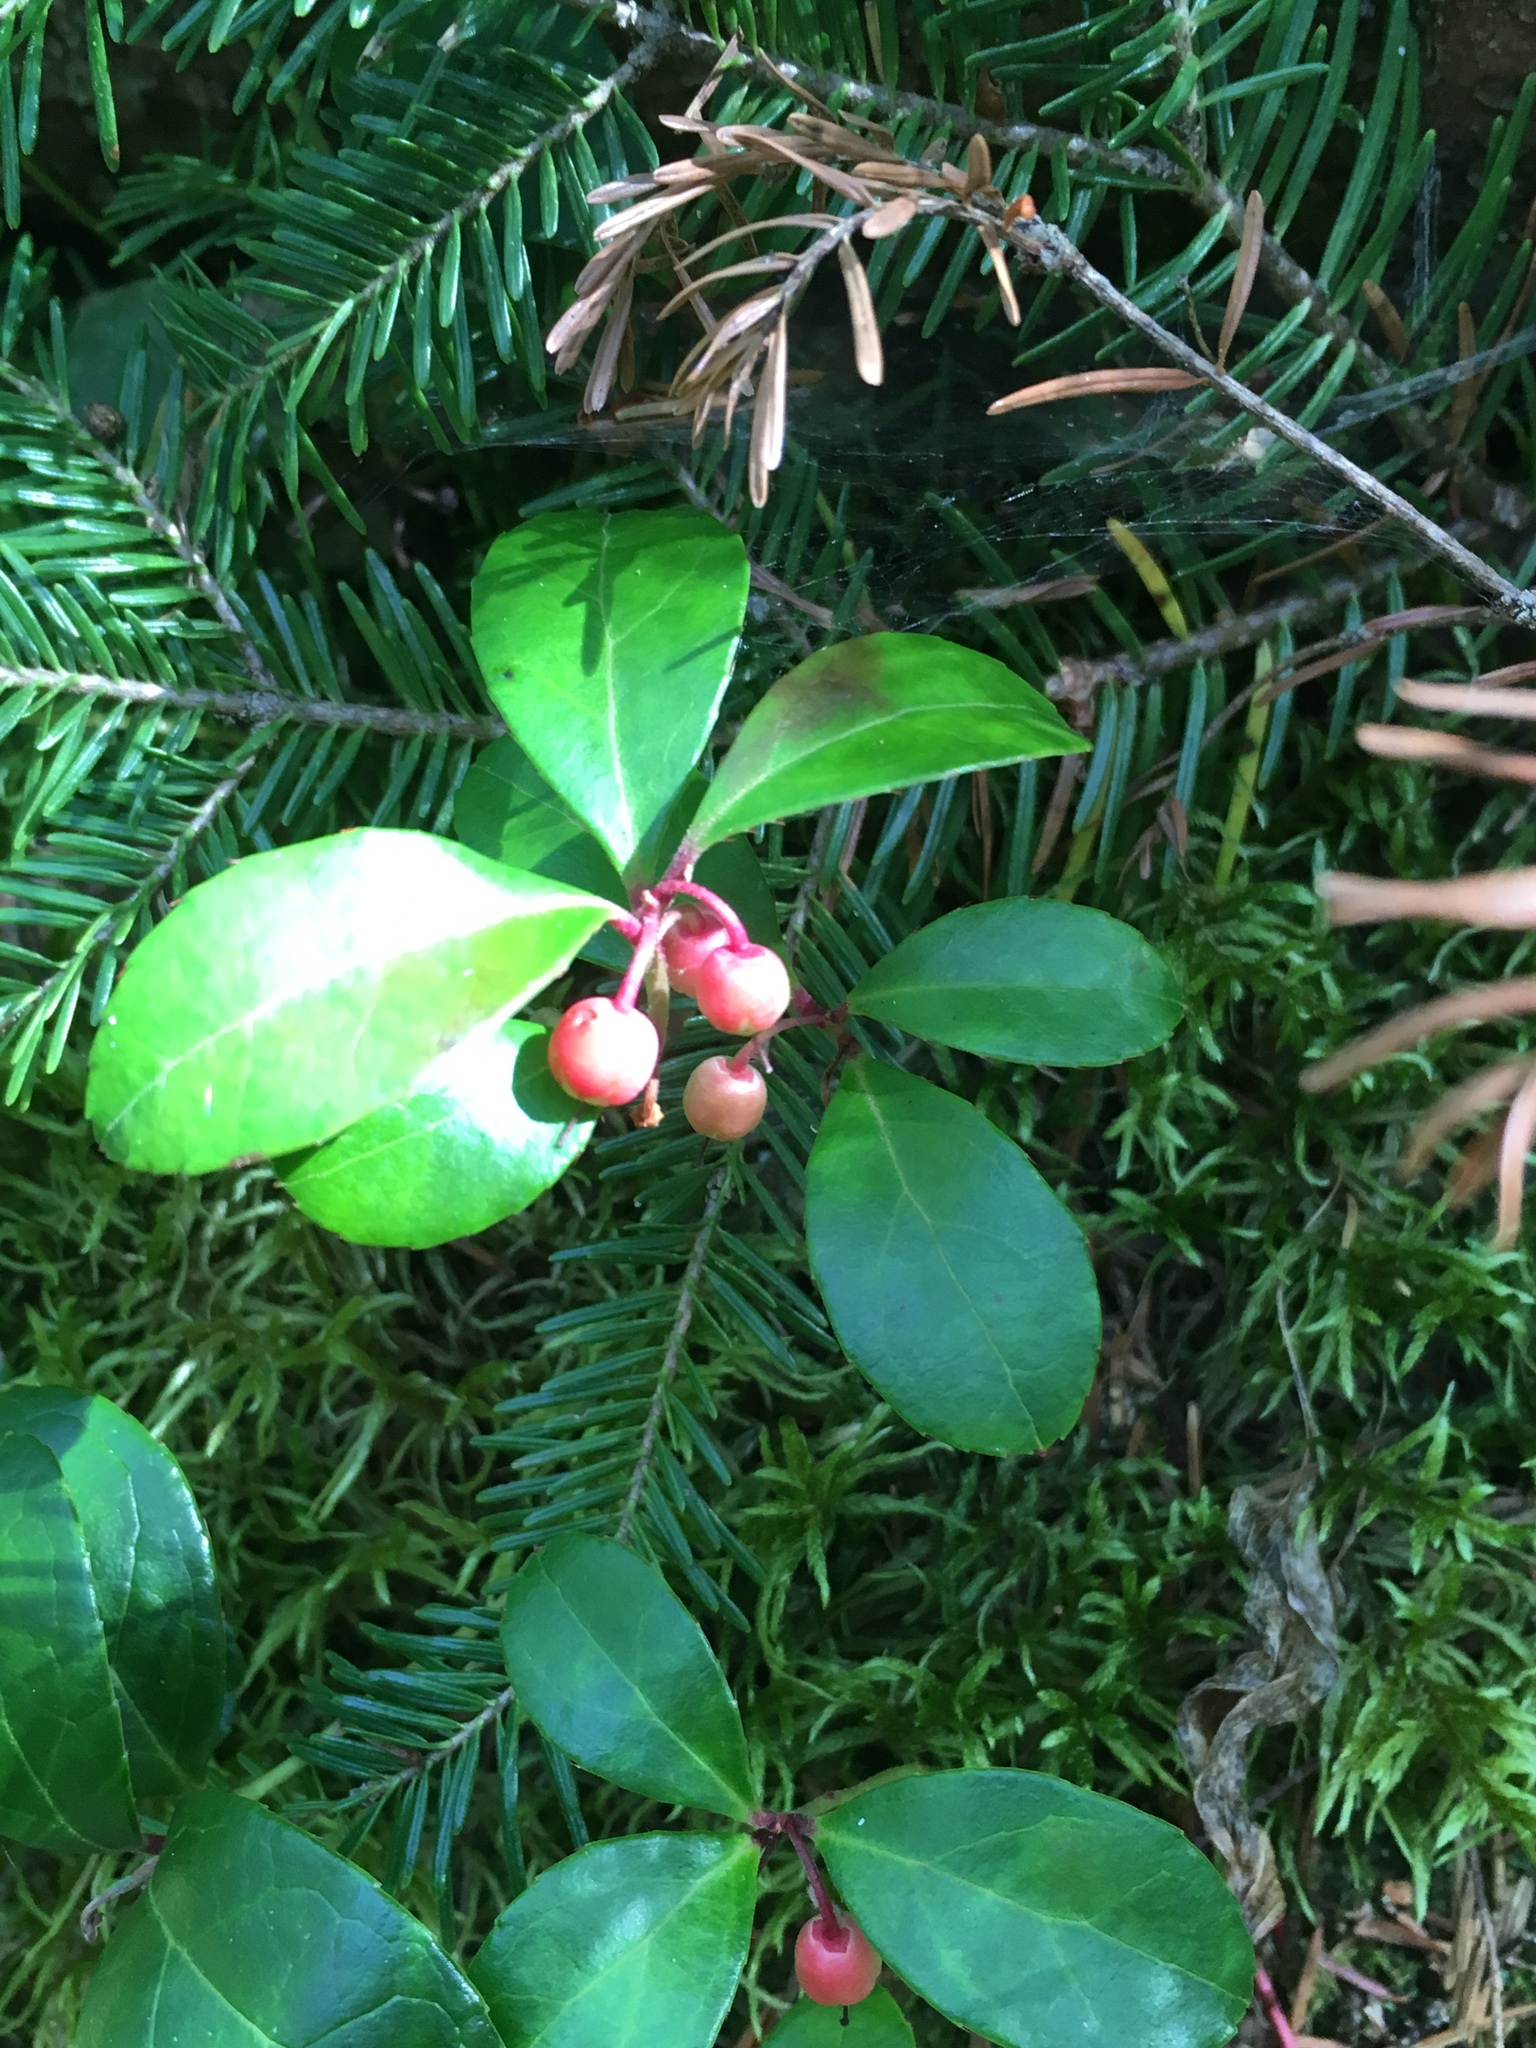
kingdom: Plantae
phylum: Tracheophyta
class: Magnoliopsida
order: Ericales
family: Ericaceae
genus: Gaultheria
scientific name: Gaultheria procumbens
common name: Checkerberry
